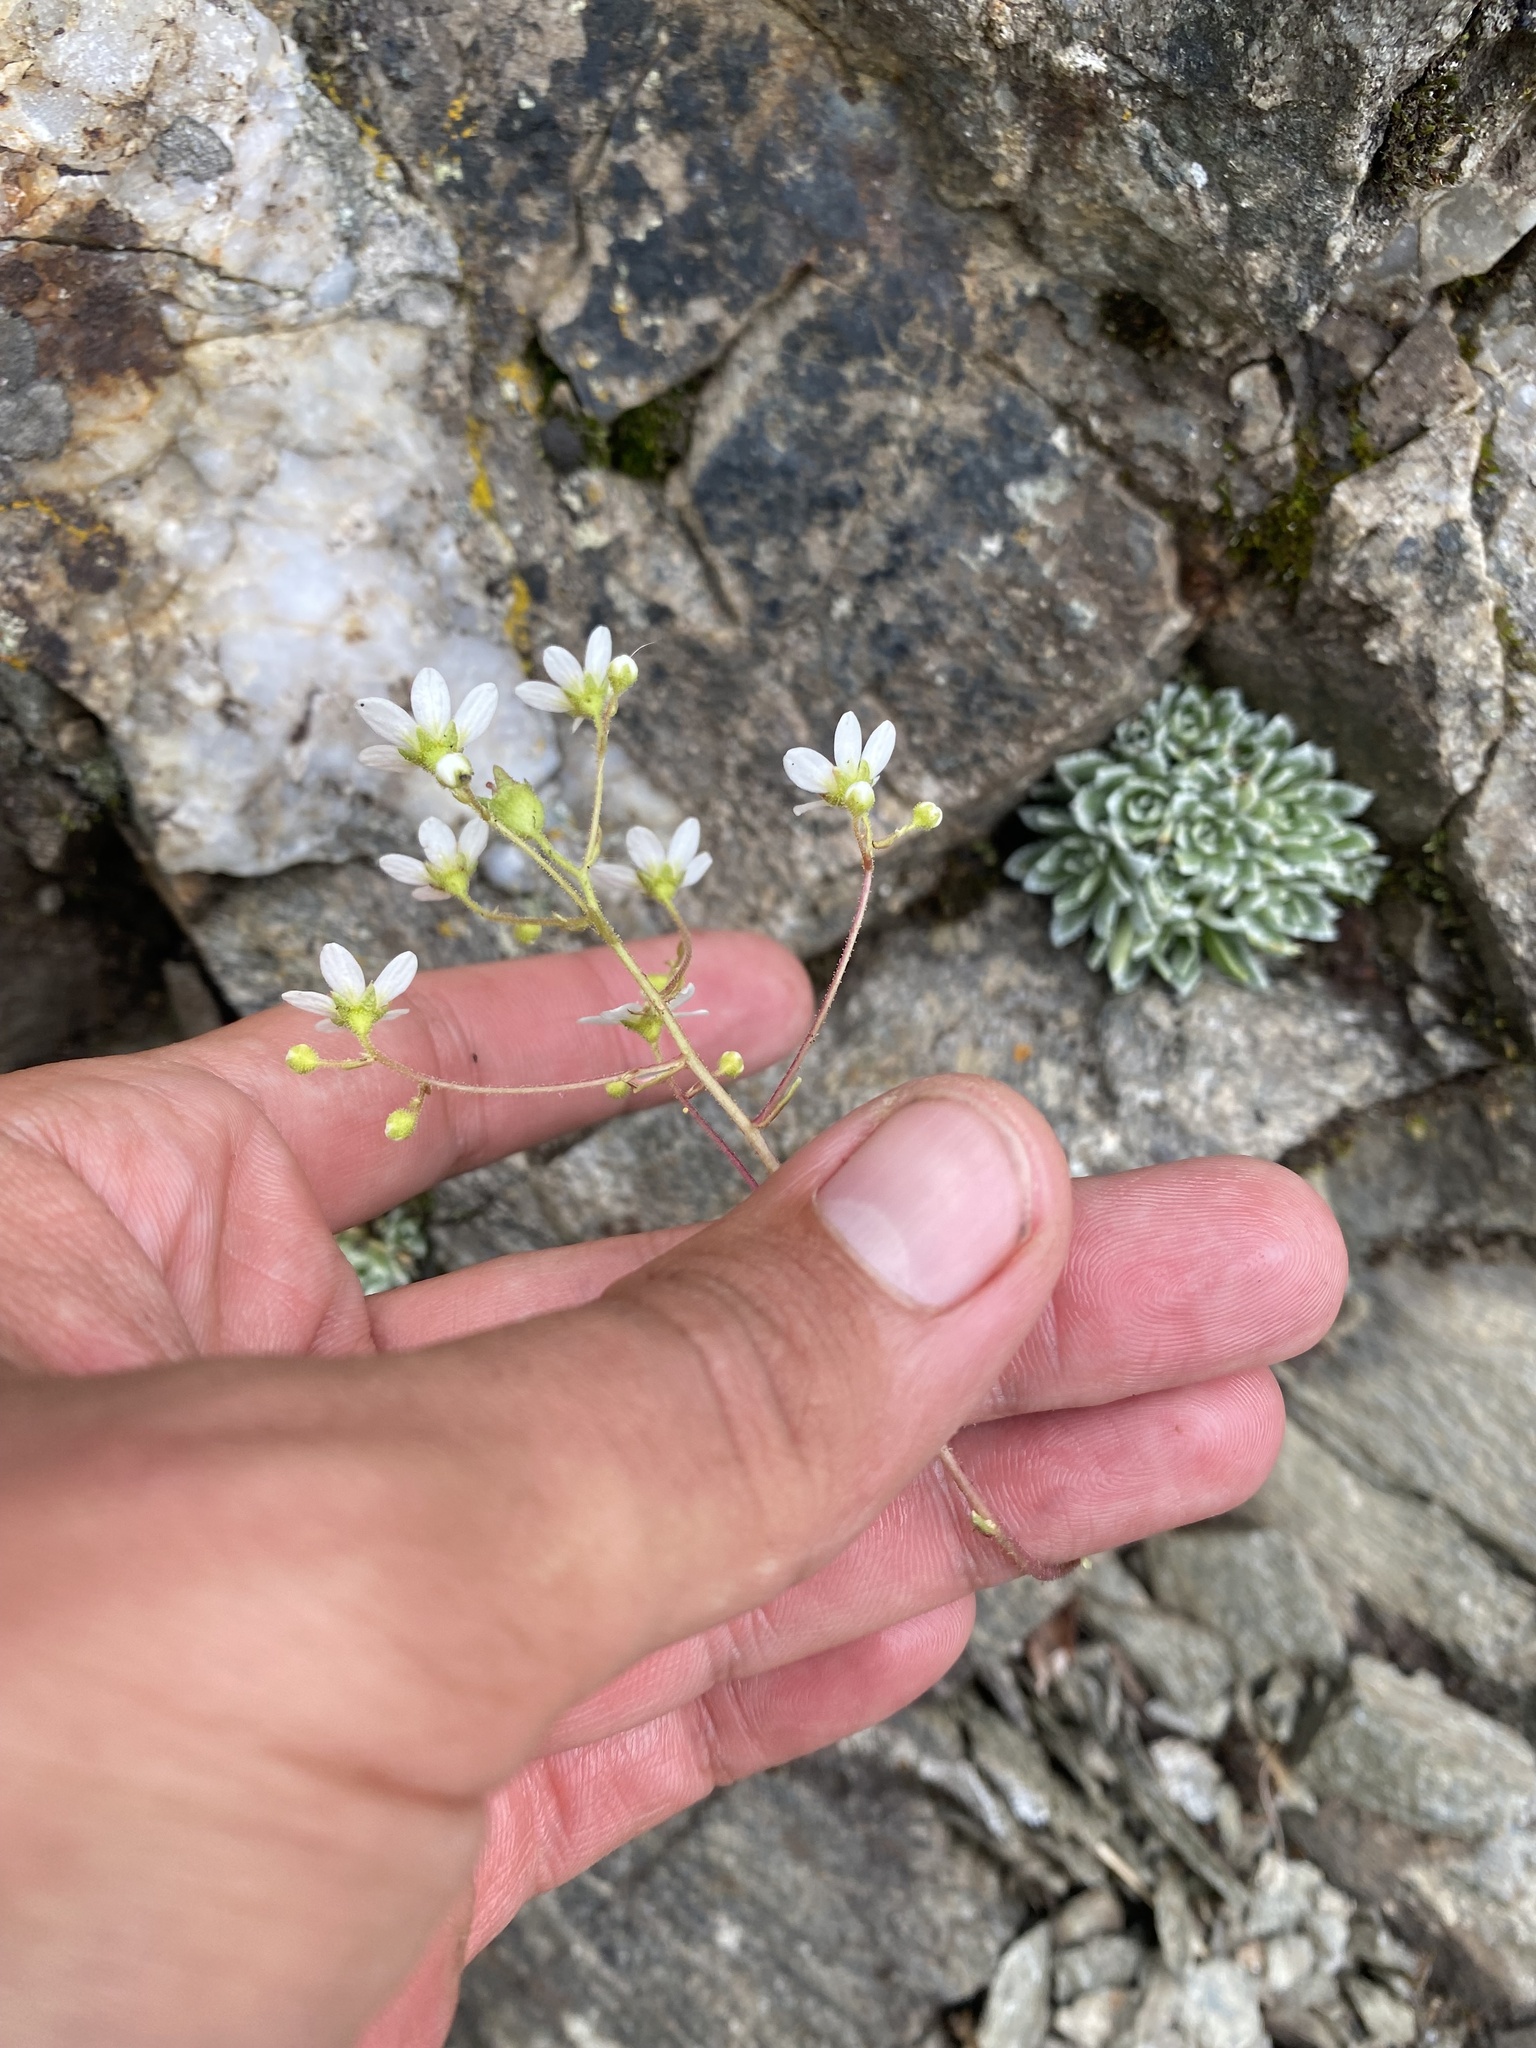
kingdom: Plantae
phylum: Tracheophyta
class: Magnoliopsida
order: Saxifragales
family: Saxifragaceae
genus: Saxifraga
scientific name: Saxifraga paniculata
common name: Livelong saxifrage
